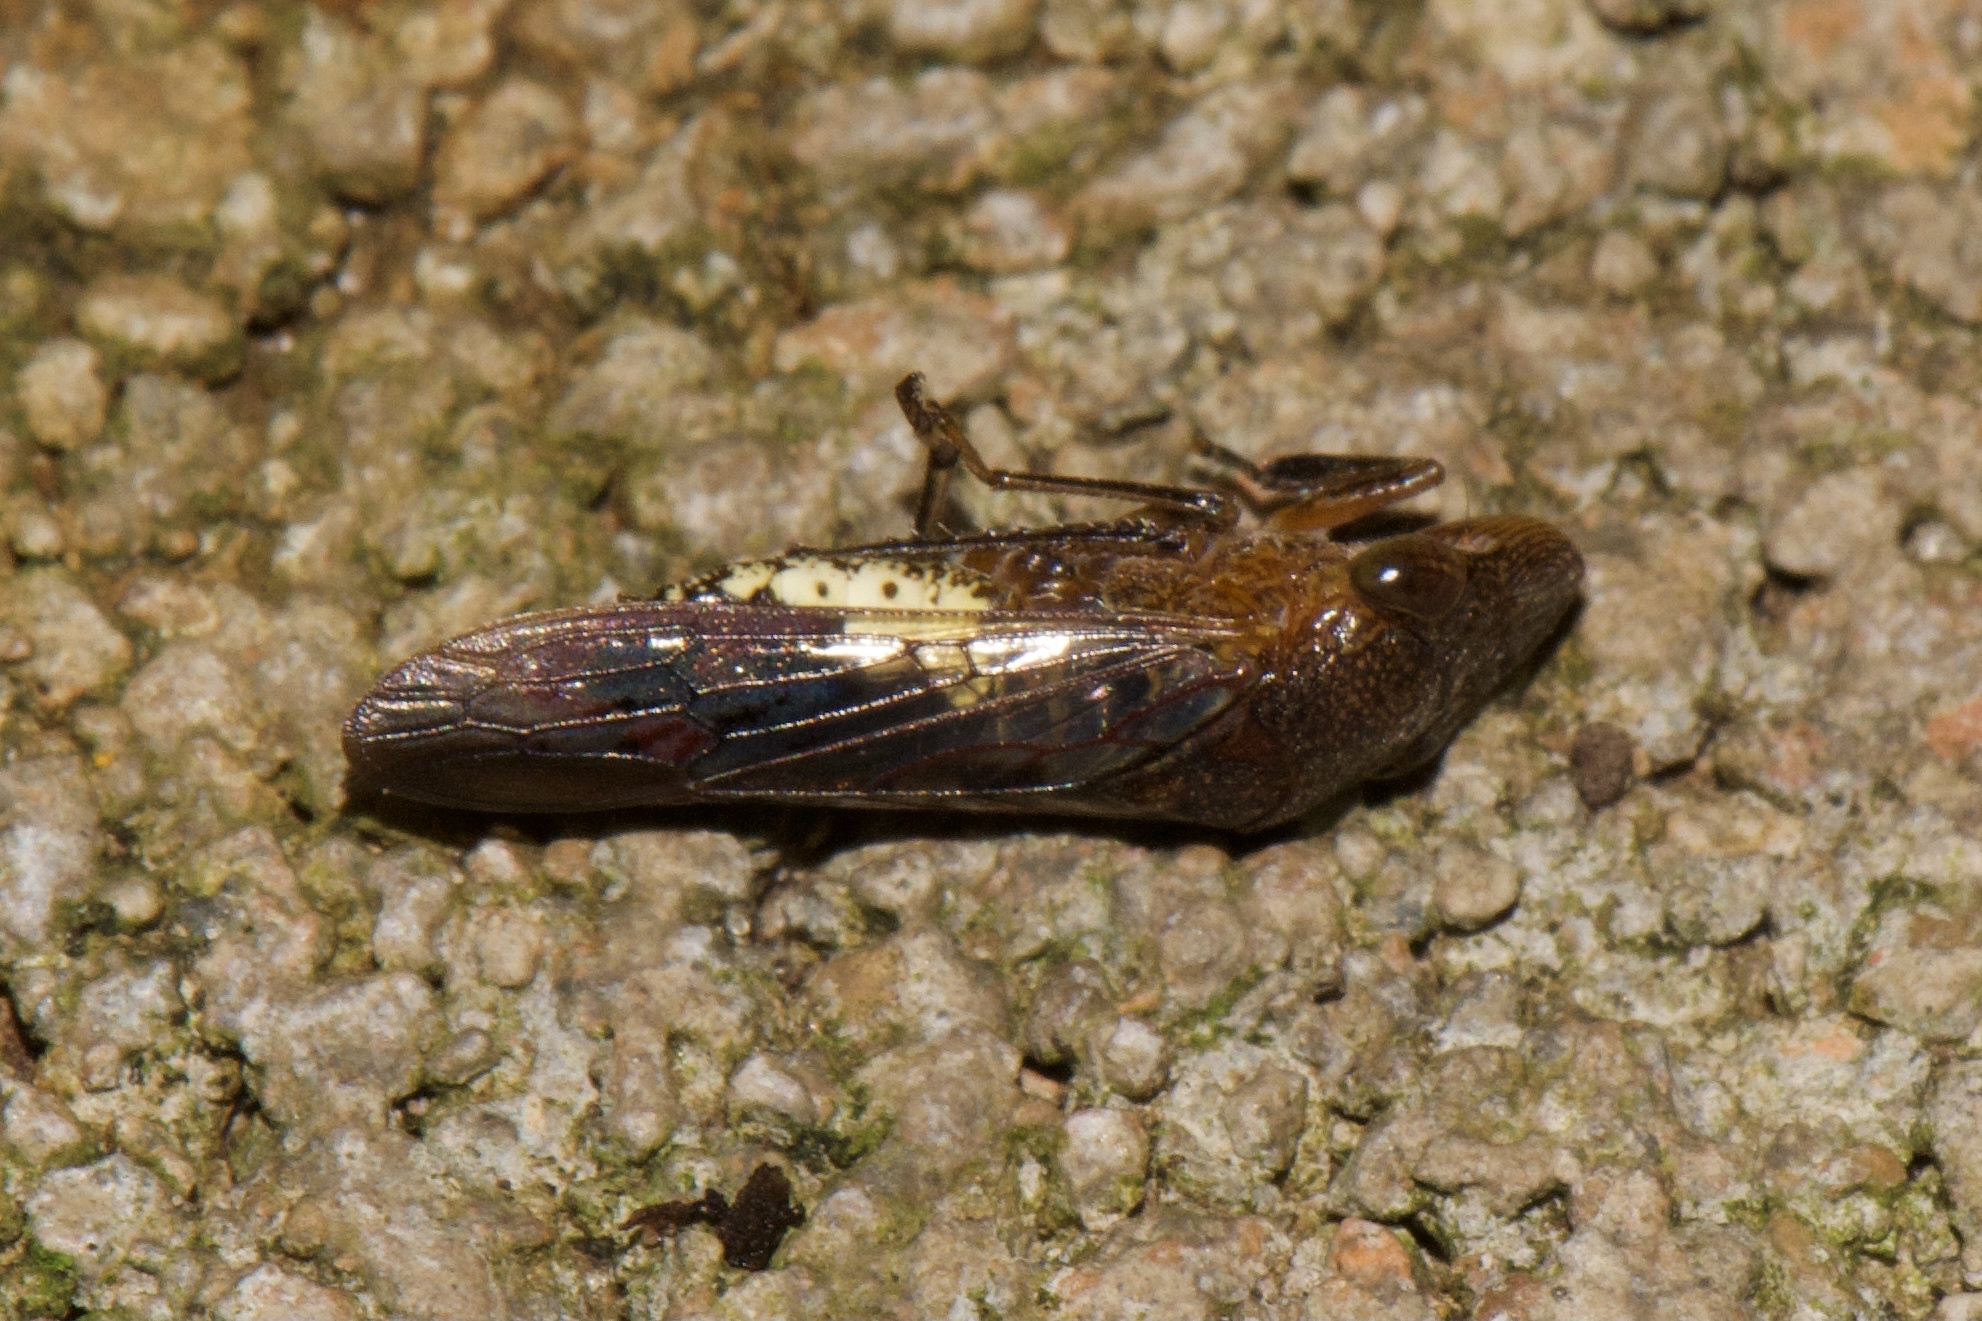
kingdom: Animalia
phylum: Arthropoda
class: Insecta
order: Hemiptera
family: Cicadellidae
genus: Homalodisca
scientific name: Homalodisca vitripennis
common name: Glassy-winged sharpshooter
